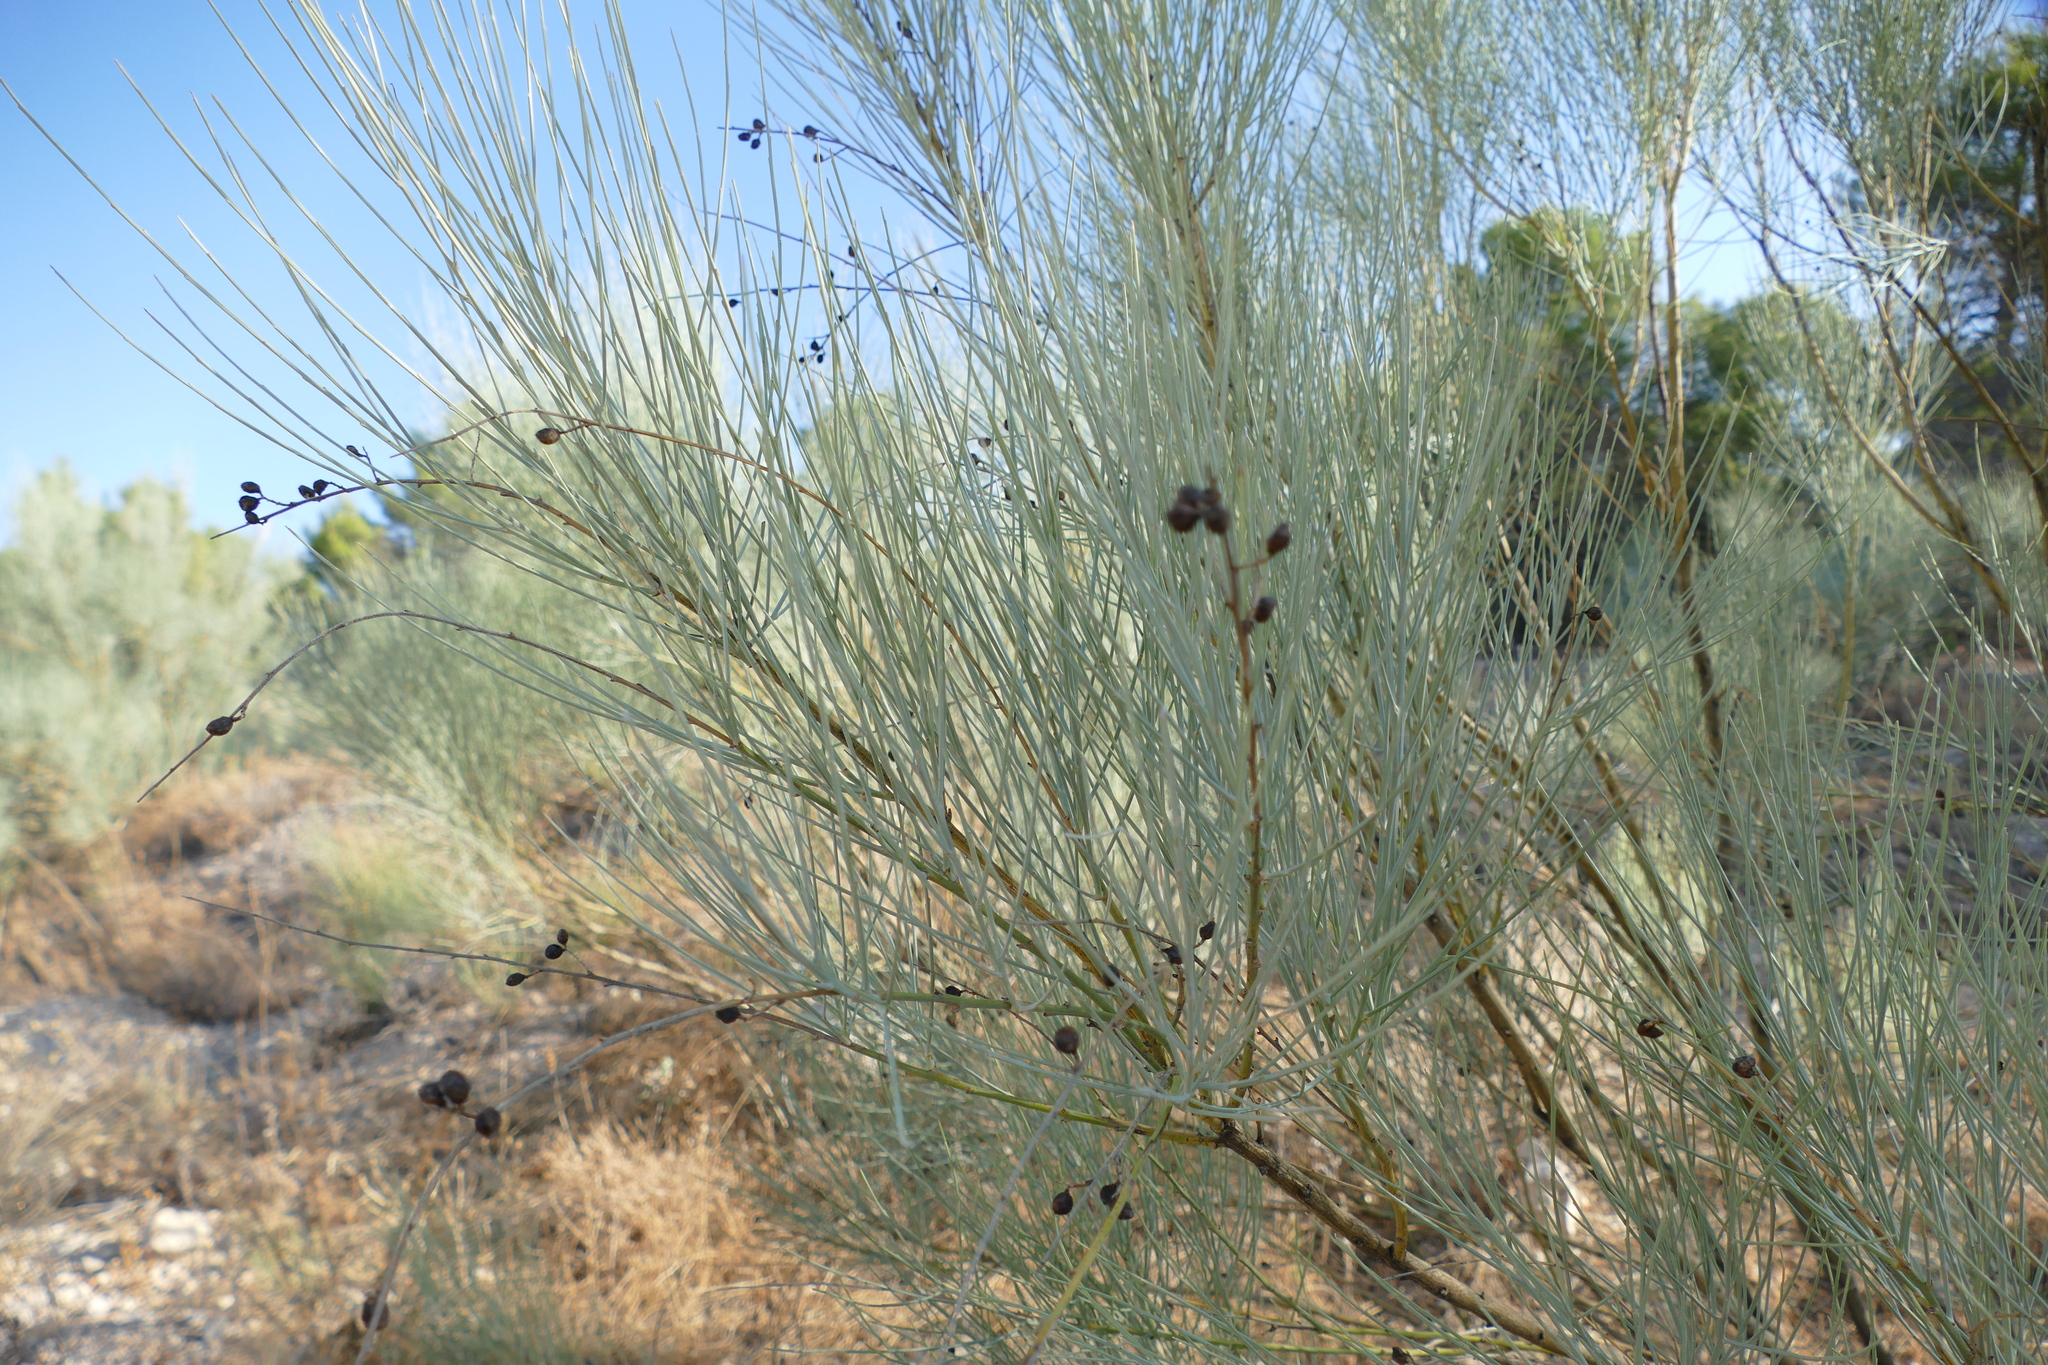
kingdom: Plantae
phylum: Tracheophyta
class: Magnoliopsida
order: Fabales
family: Fabaceae
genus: Retama
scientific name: Retama sphaerocarpa
